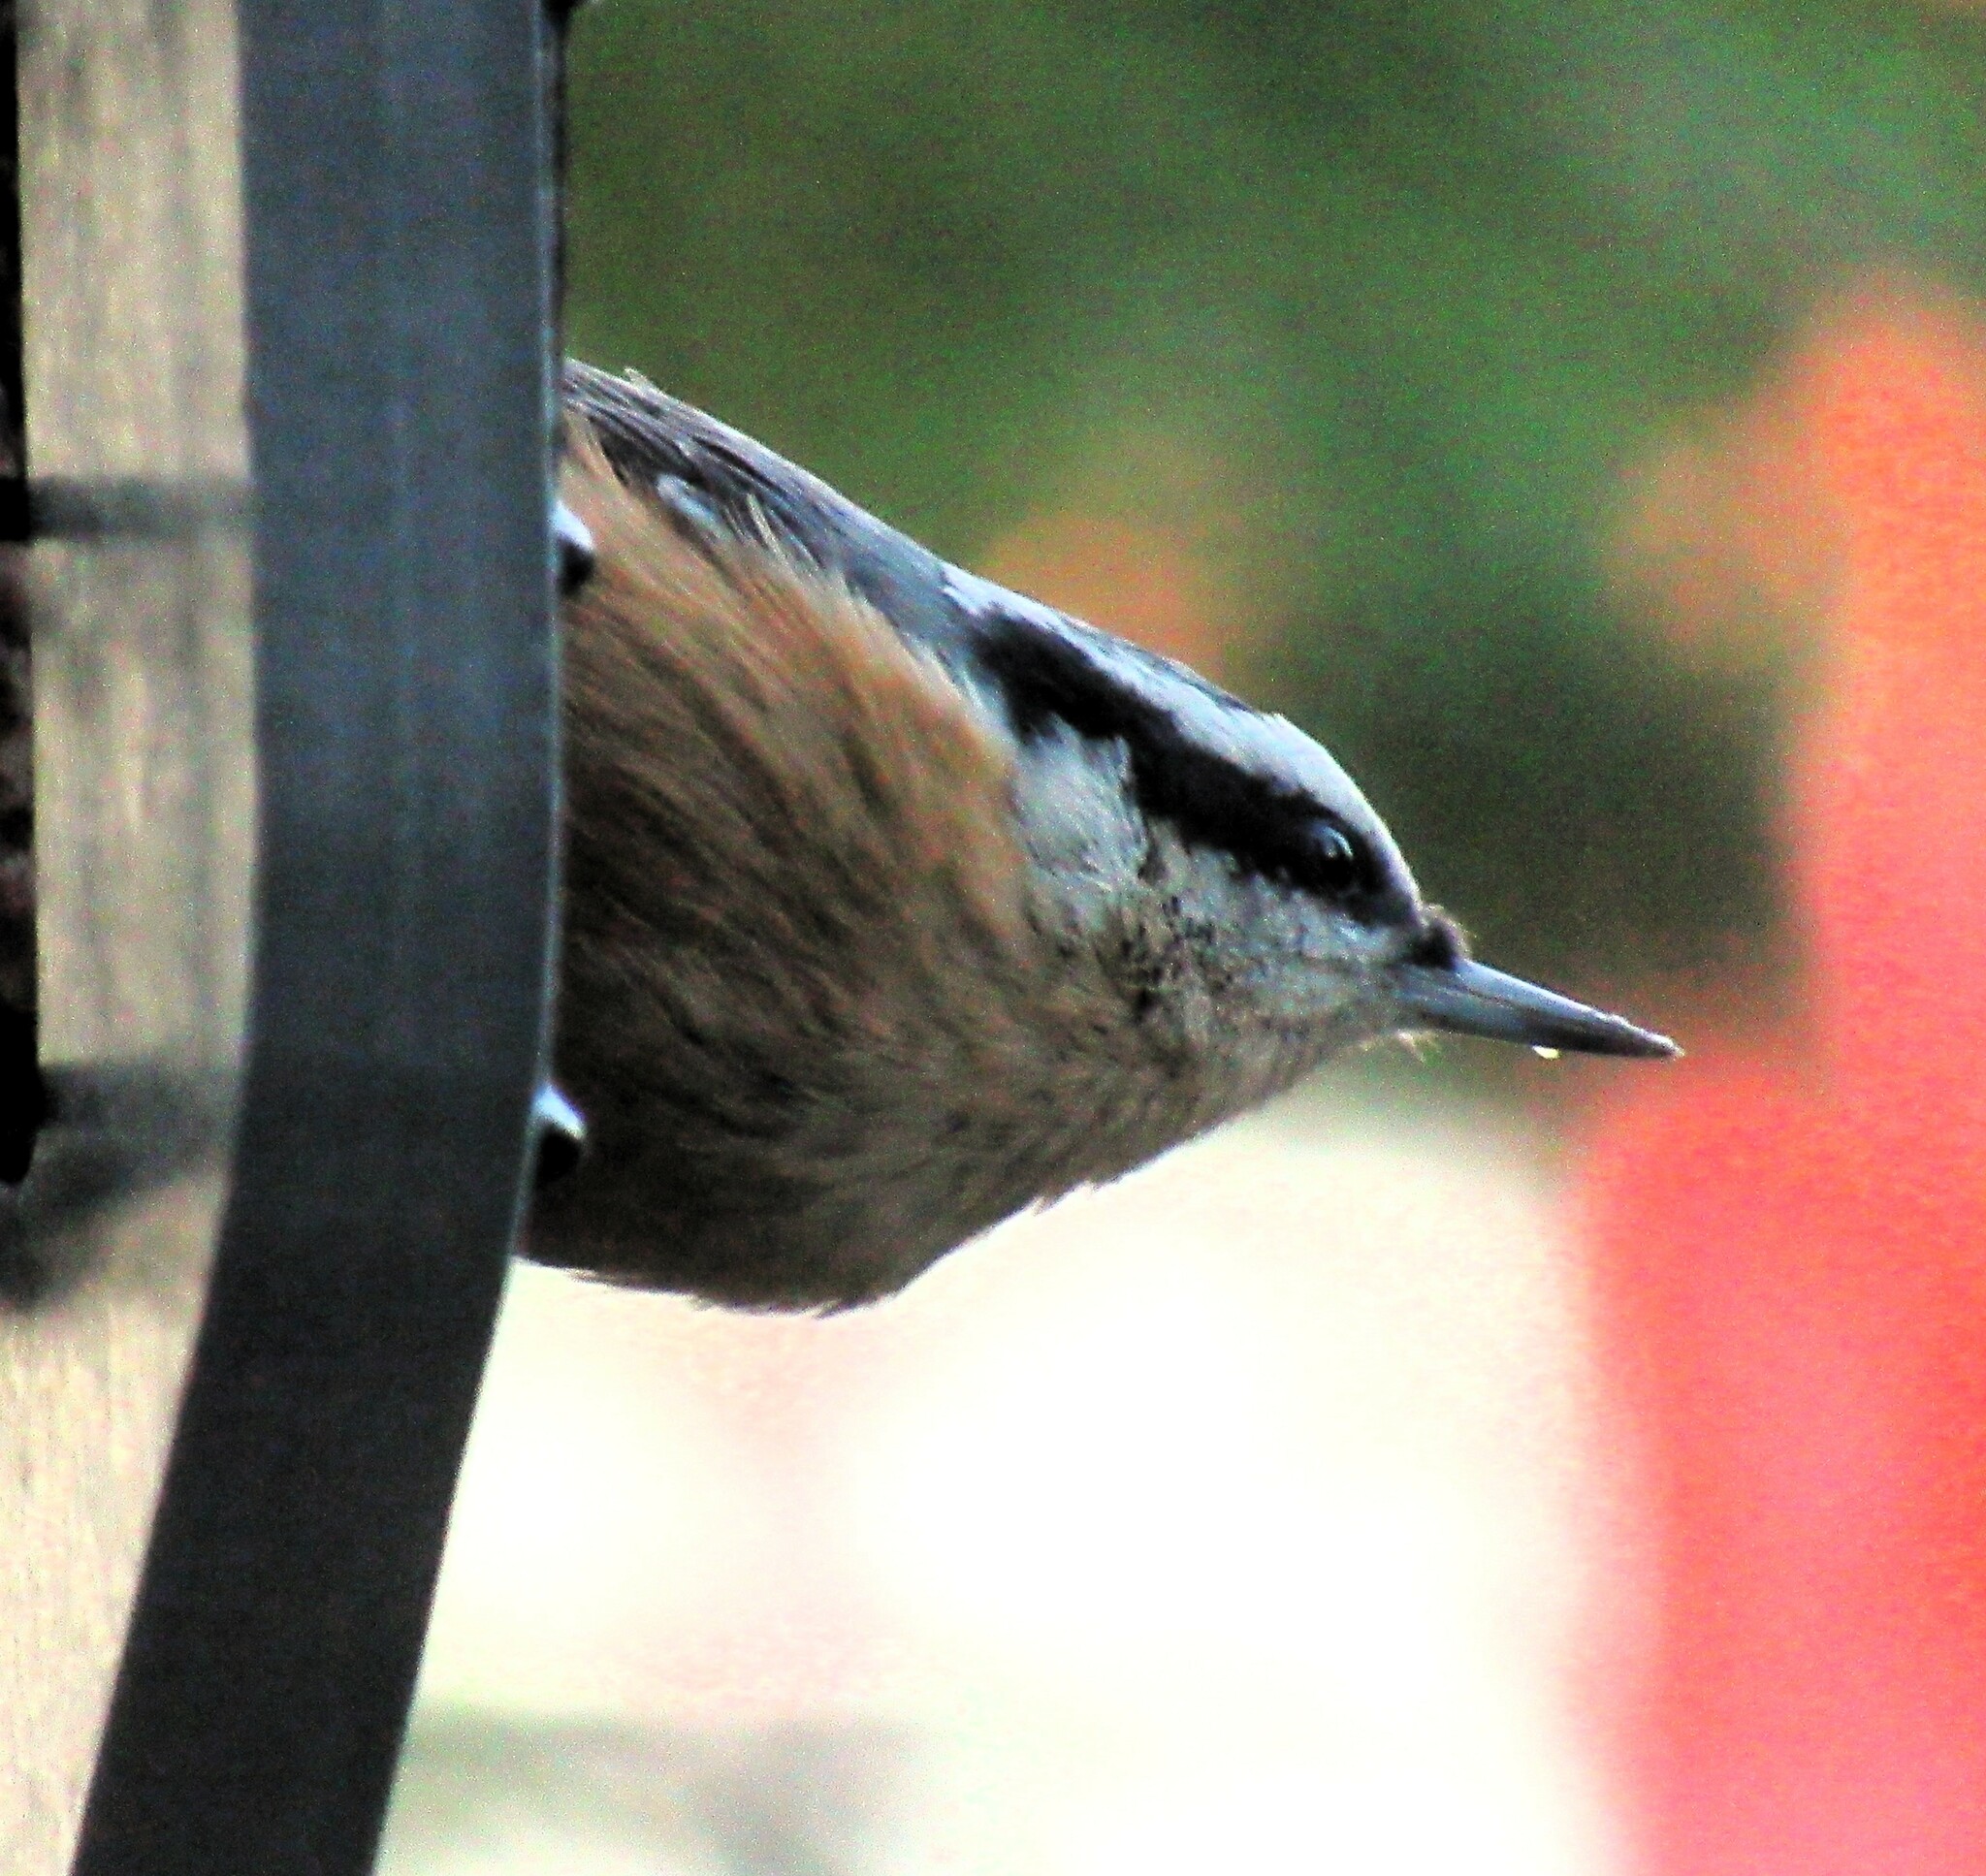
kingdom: Animalia
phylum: Chordata
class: Aves
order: Passeriformes
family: Sittidae
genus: Sitta
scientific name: Sitta canadensis
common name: Red-breasted nuthatch
